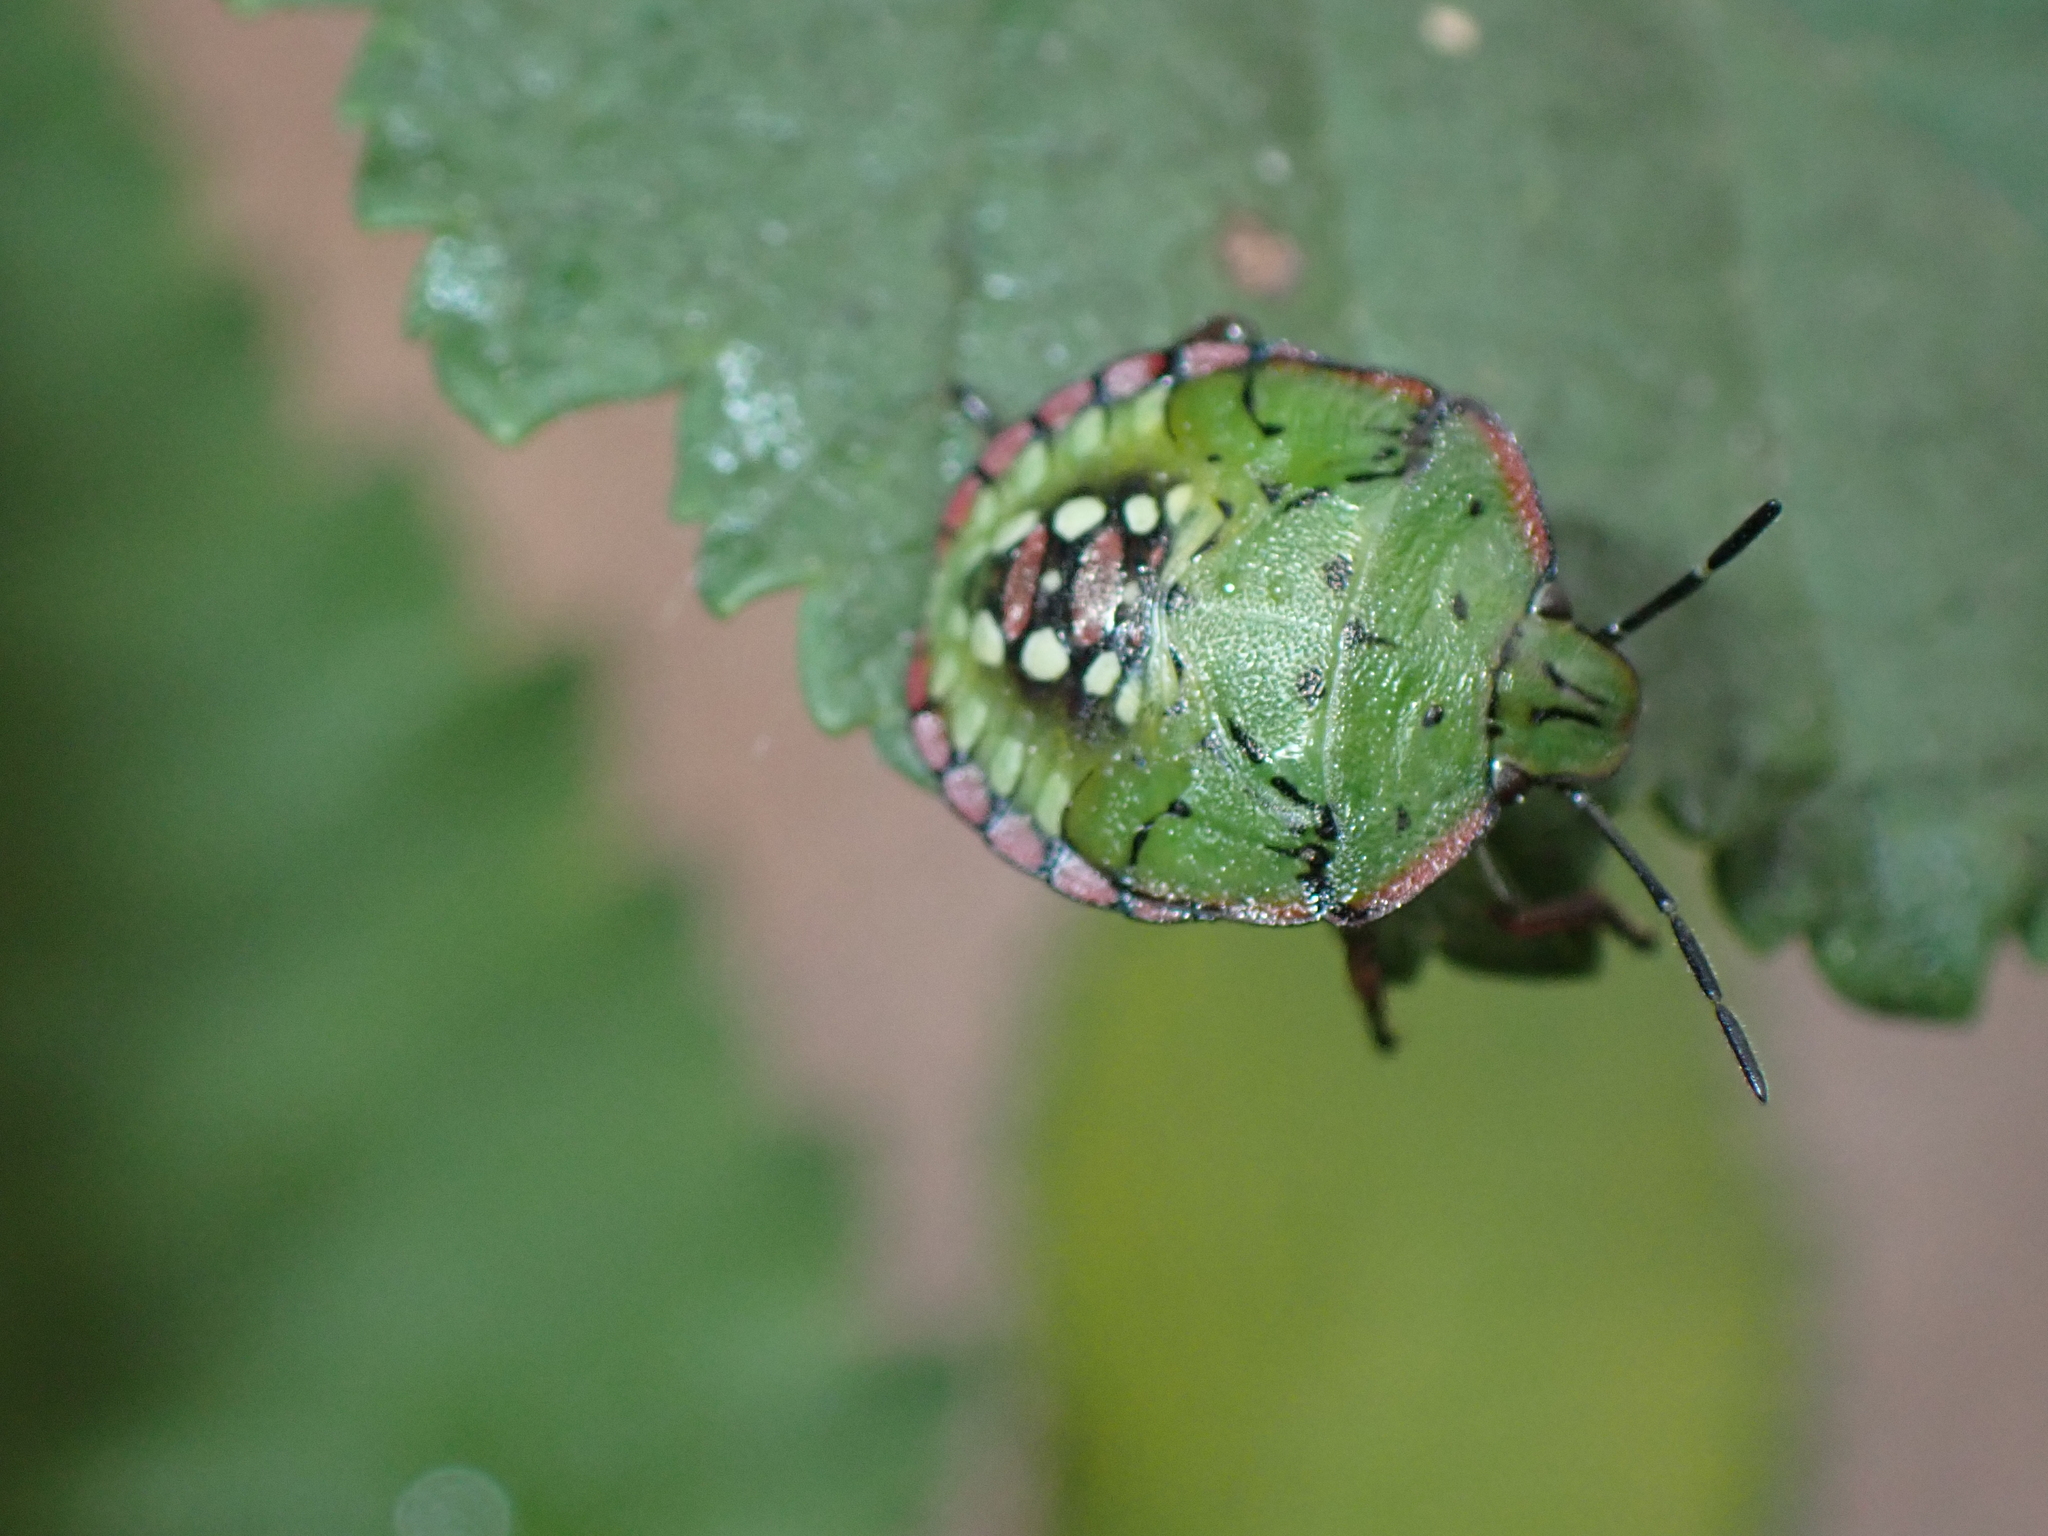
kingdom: Animalia
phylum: Arthropoda
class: Insecta
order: Hemiptera
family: Pentatomidae
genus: Nezara
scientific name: Nezara viridula
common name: Southern green stink bug
